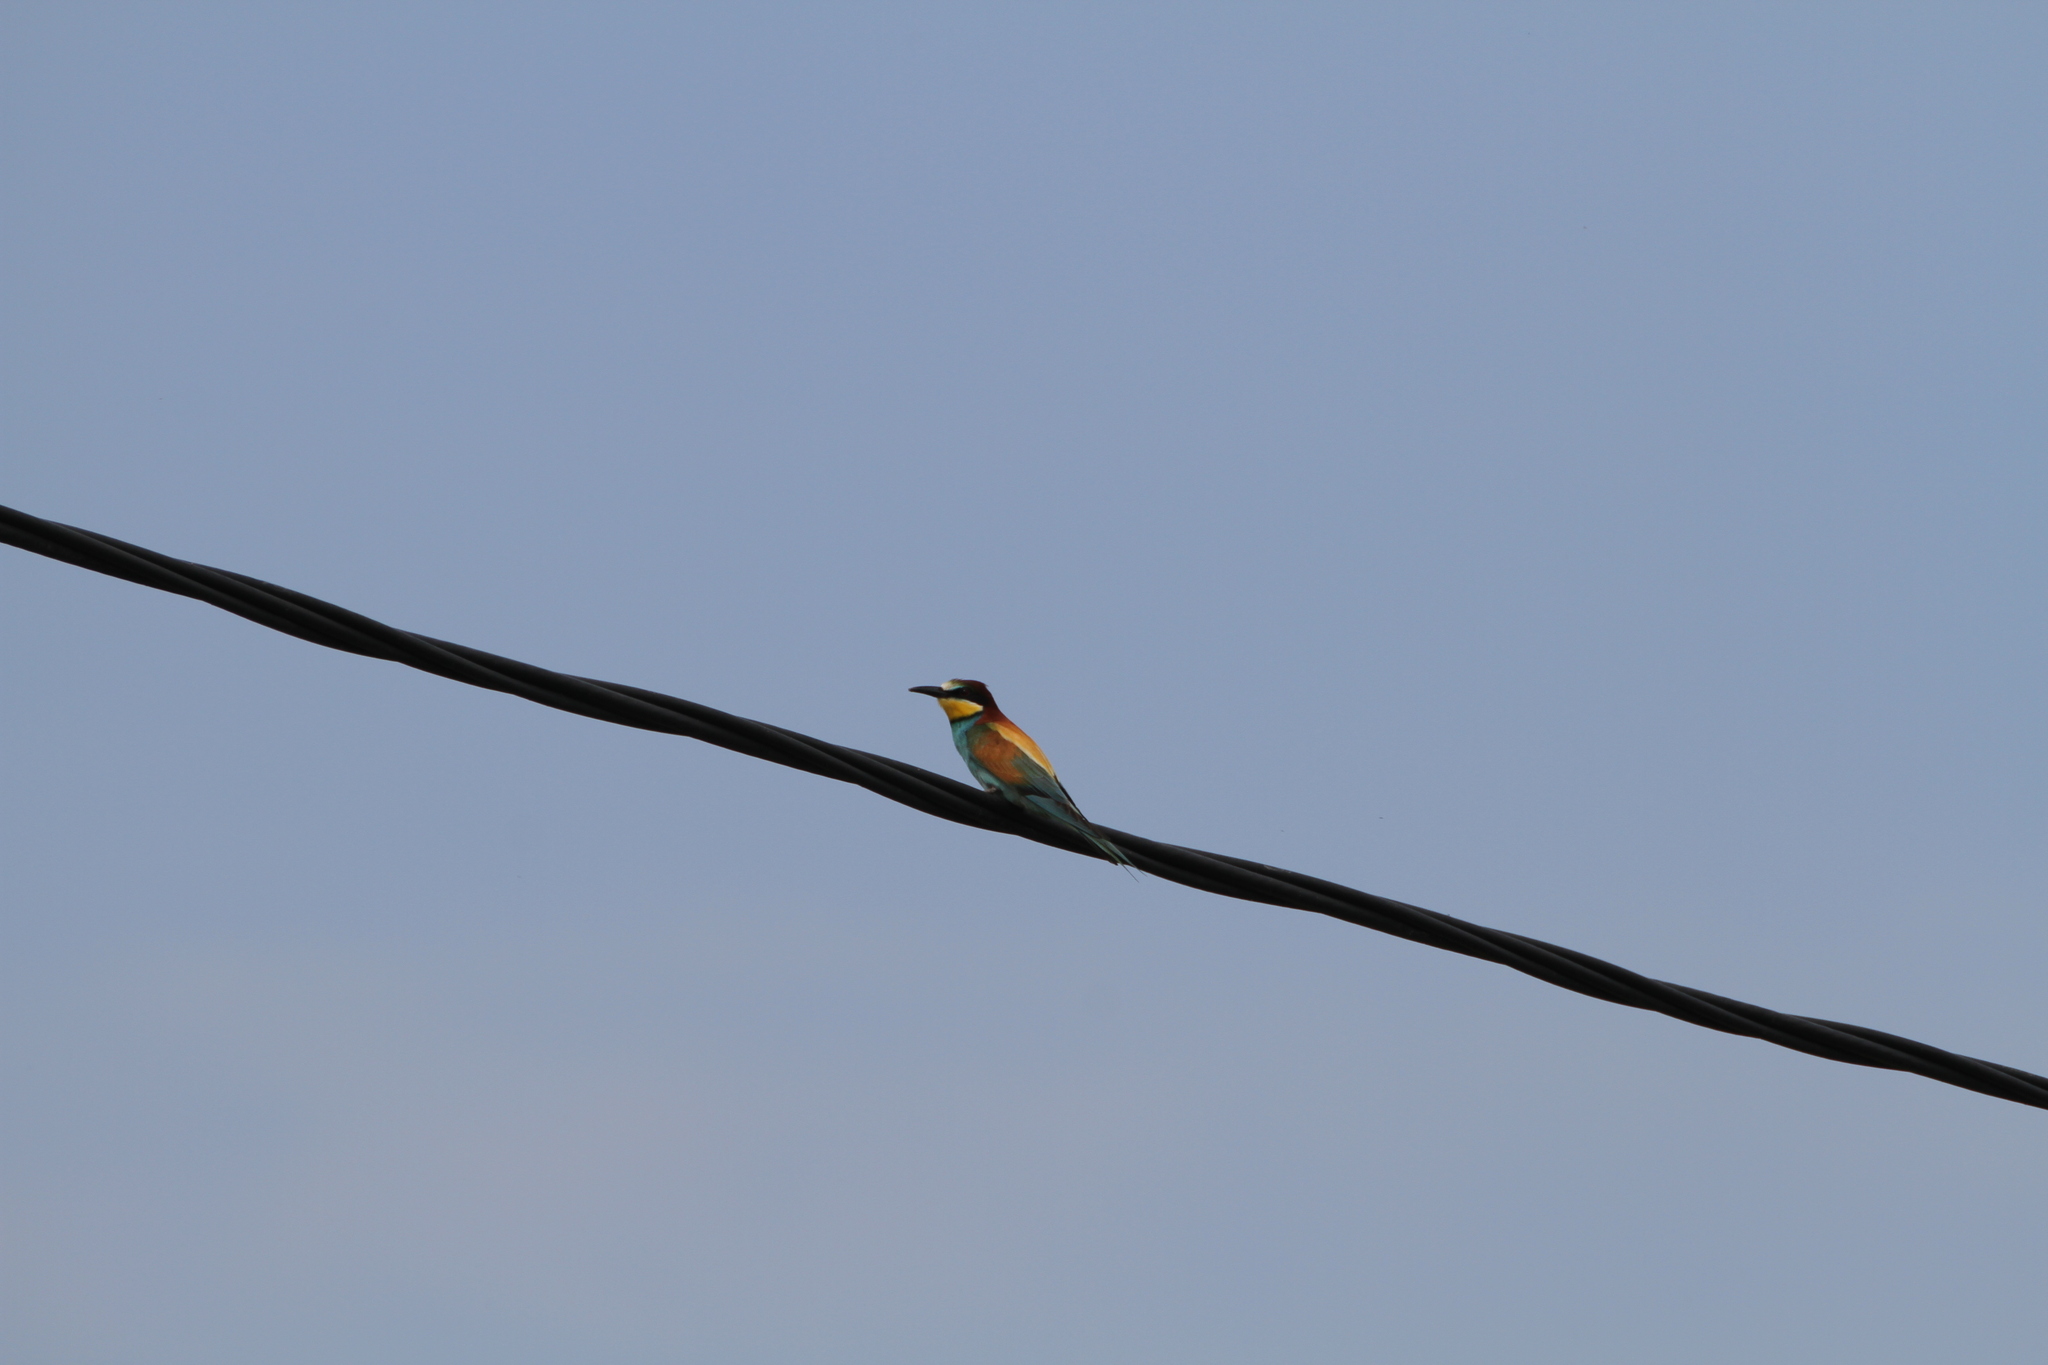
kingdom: Animalia
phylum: Chordata
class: Aves
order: Coraciiformes
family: Meropidae
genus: Merops
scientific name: Merops apiaster
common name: European bee-eater
